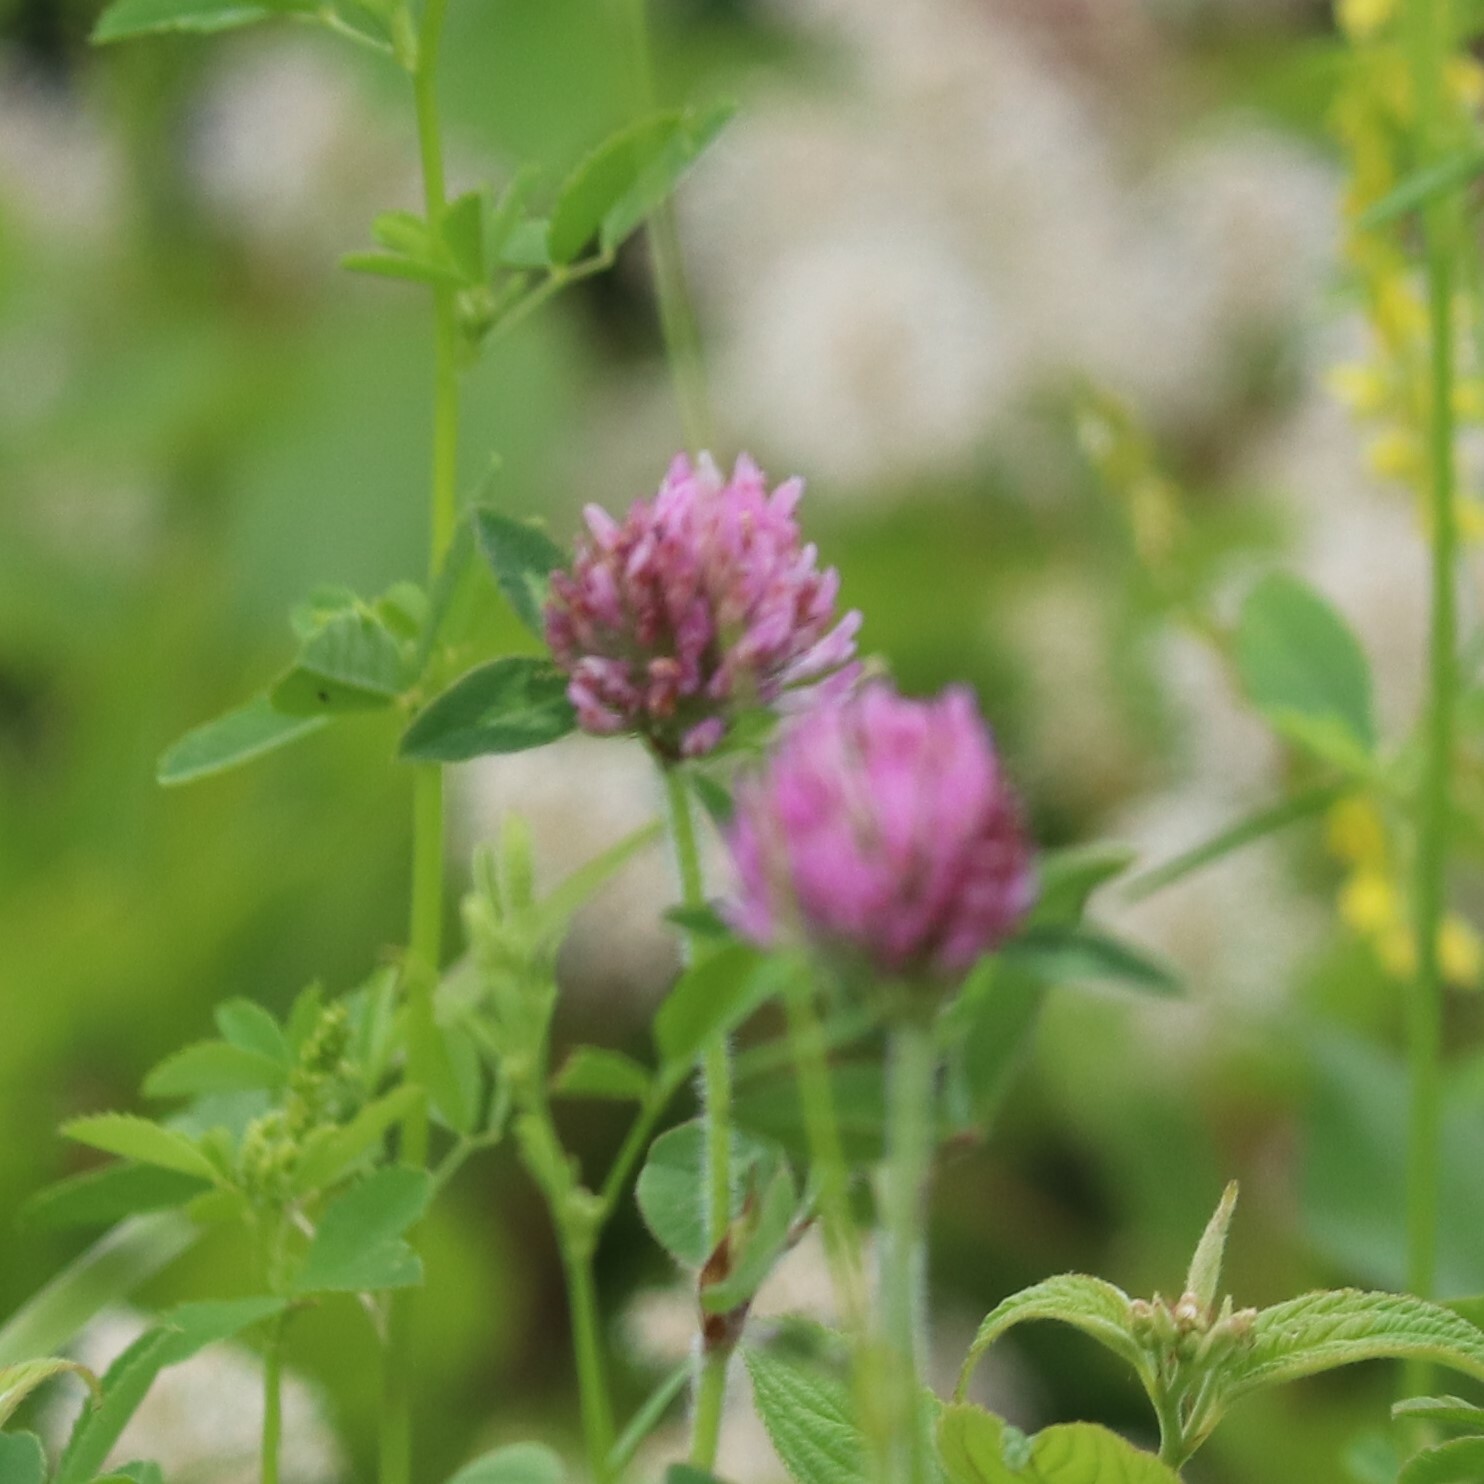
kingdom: Plantae
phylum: Tracheophyta
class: Magnoliopsida
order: Fabales
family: Fabaceae
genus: Trifolium
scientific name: Trifolium pratense
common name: Red clover
